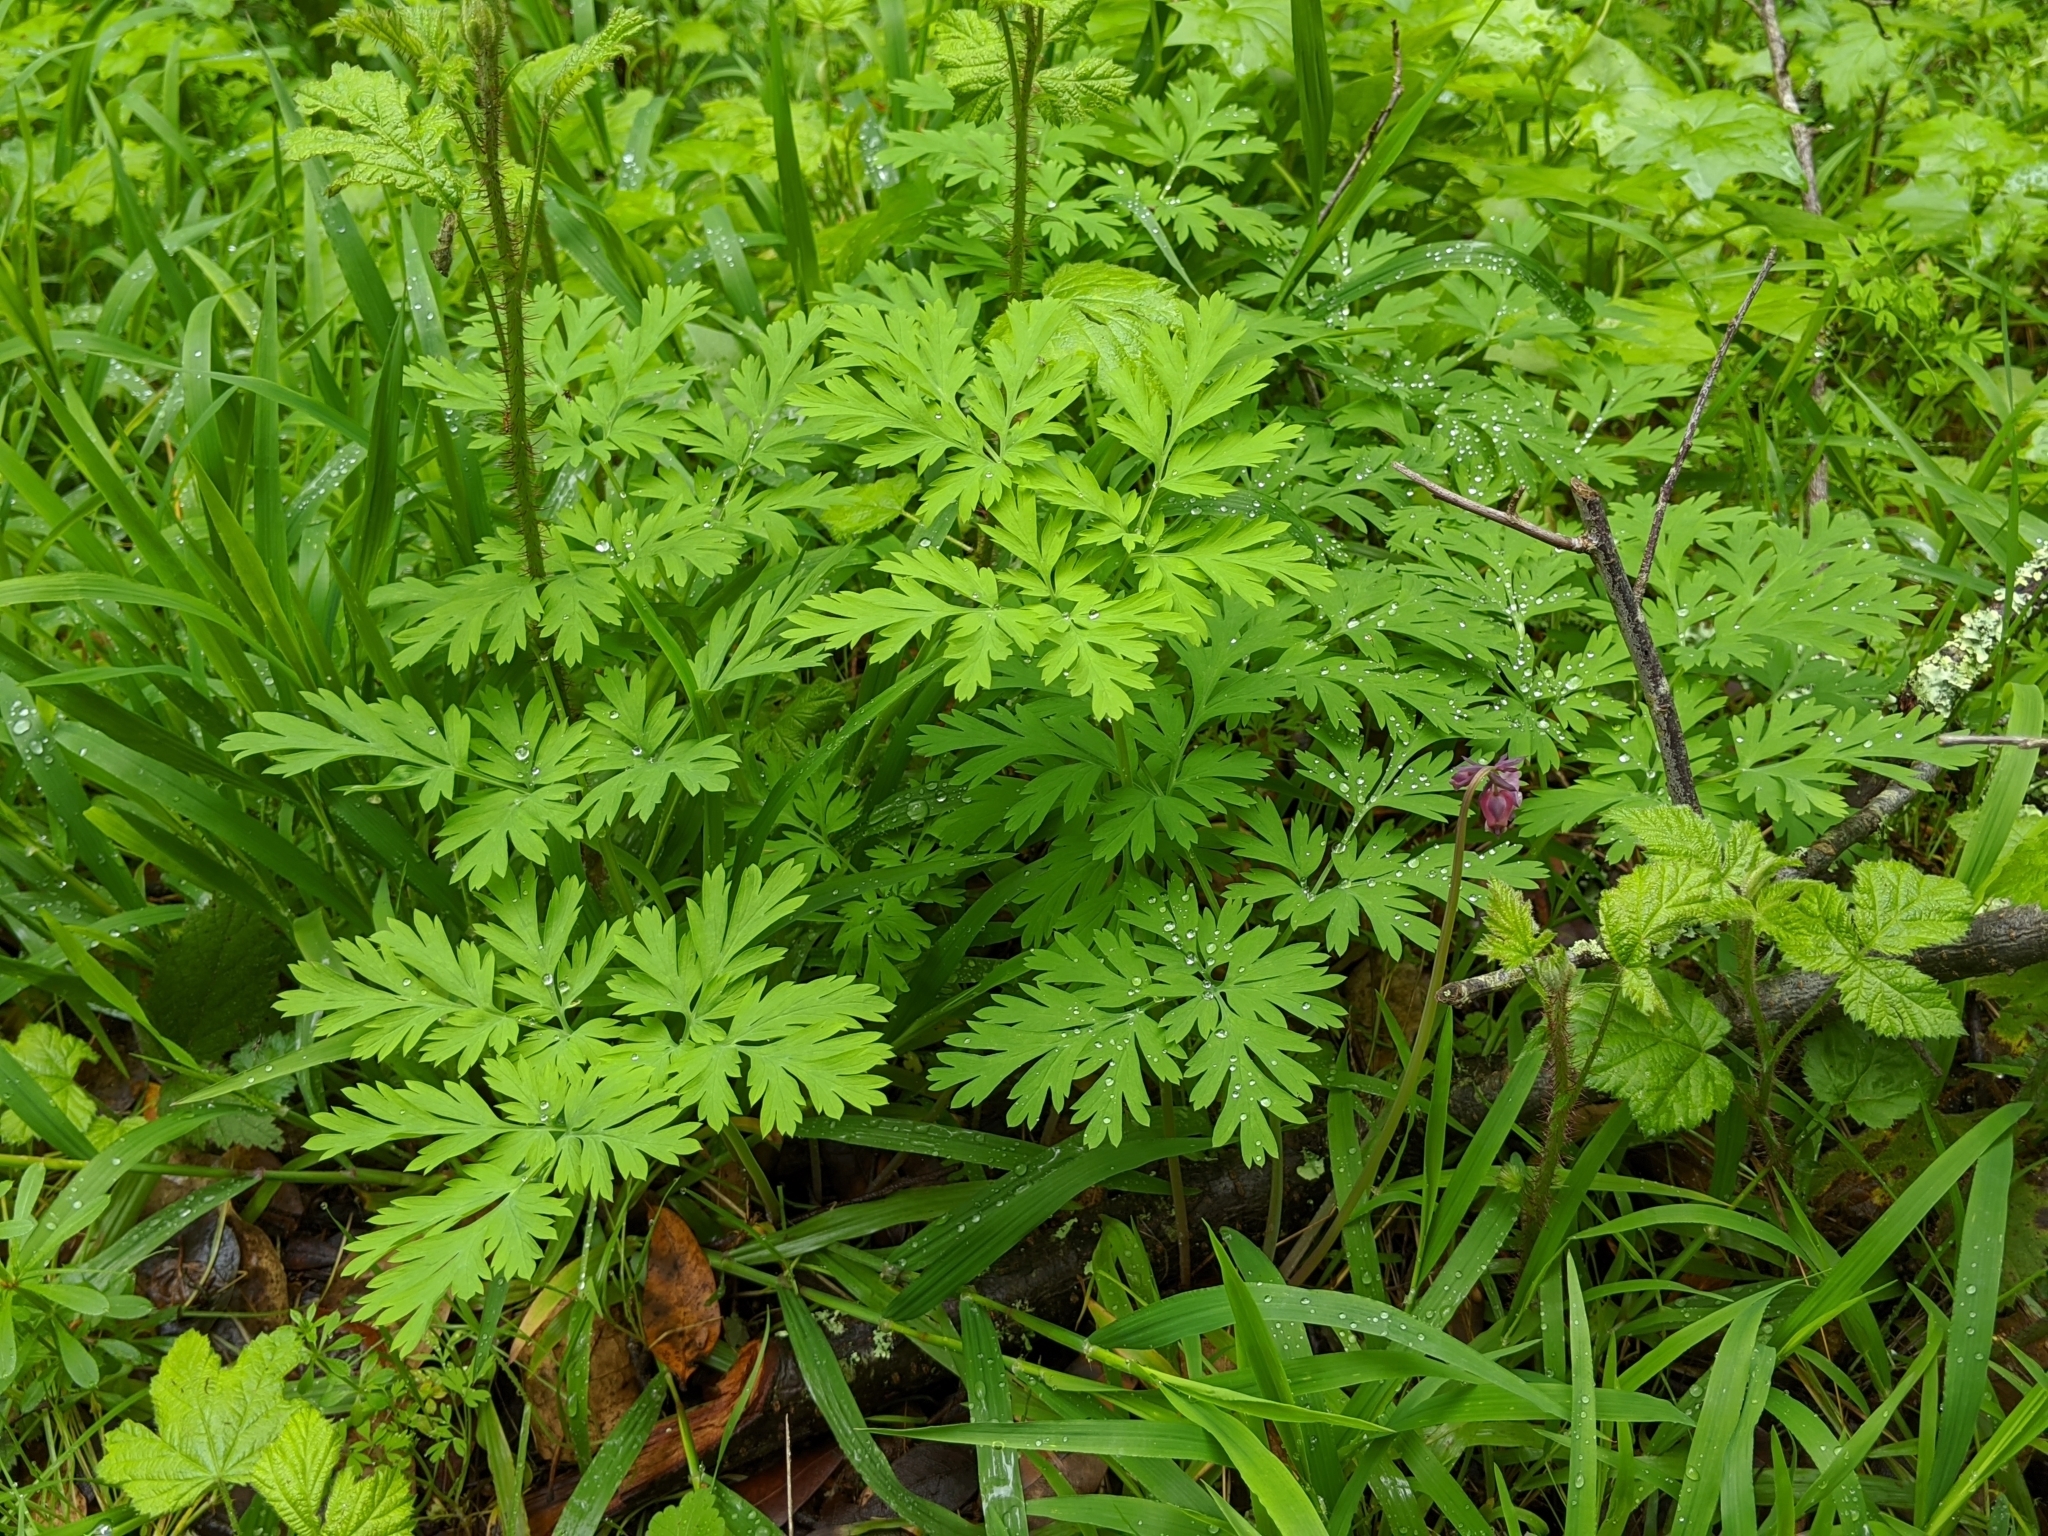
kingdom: Plantae
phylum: Tracheophyta
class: Magnoliopsida
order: Ranunculales
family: Papaveraceae
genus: Dicentra
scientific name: Dicentra formosa
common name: Bleeding-heart
